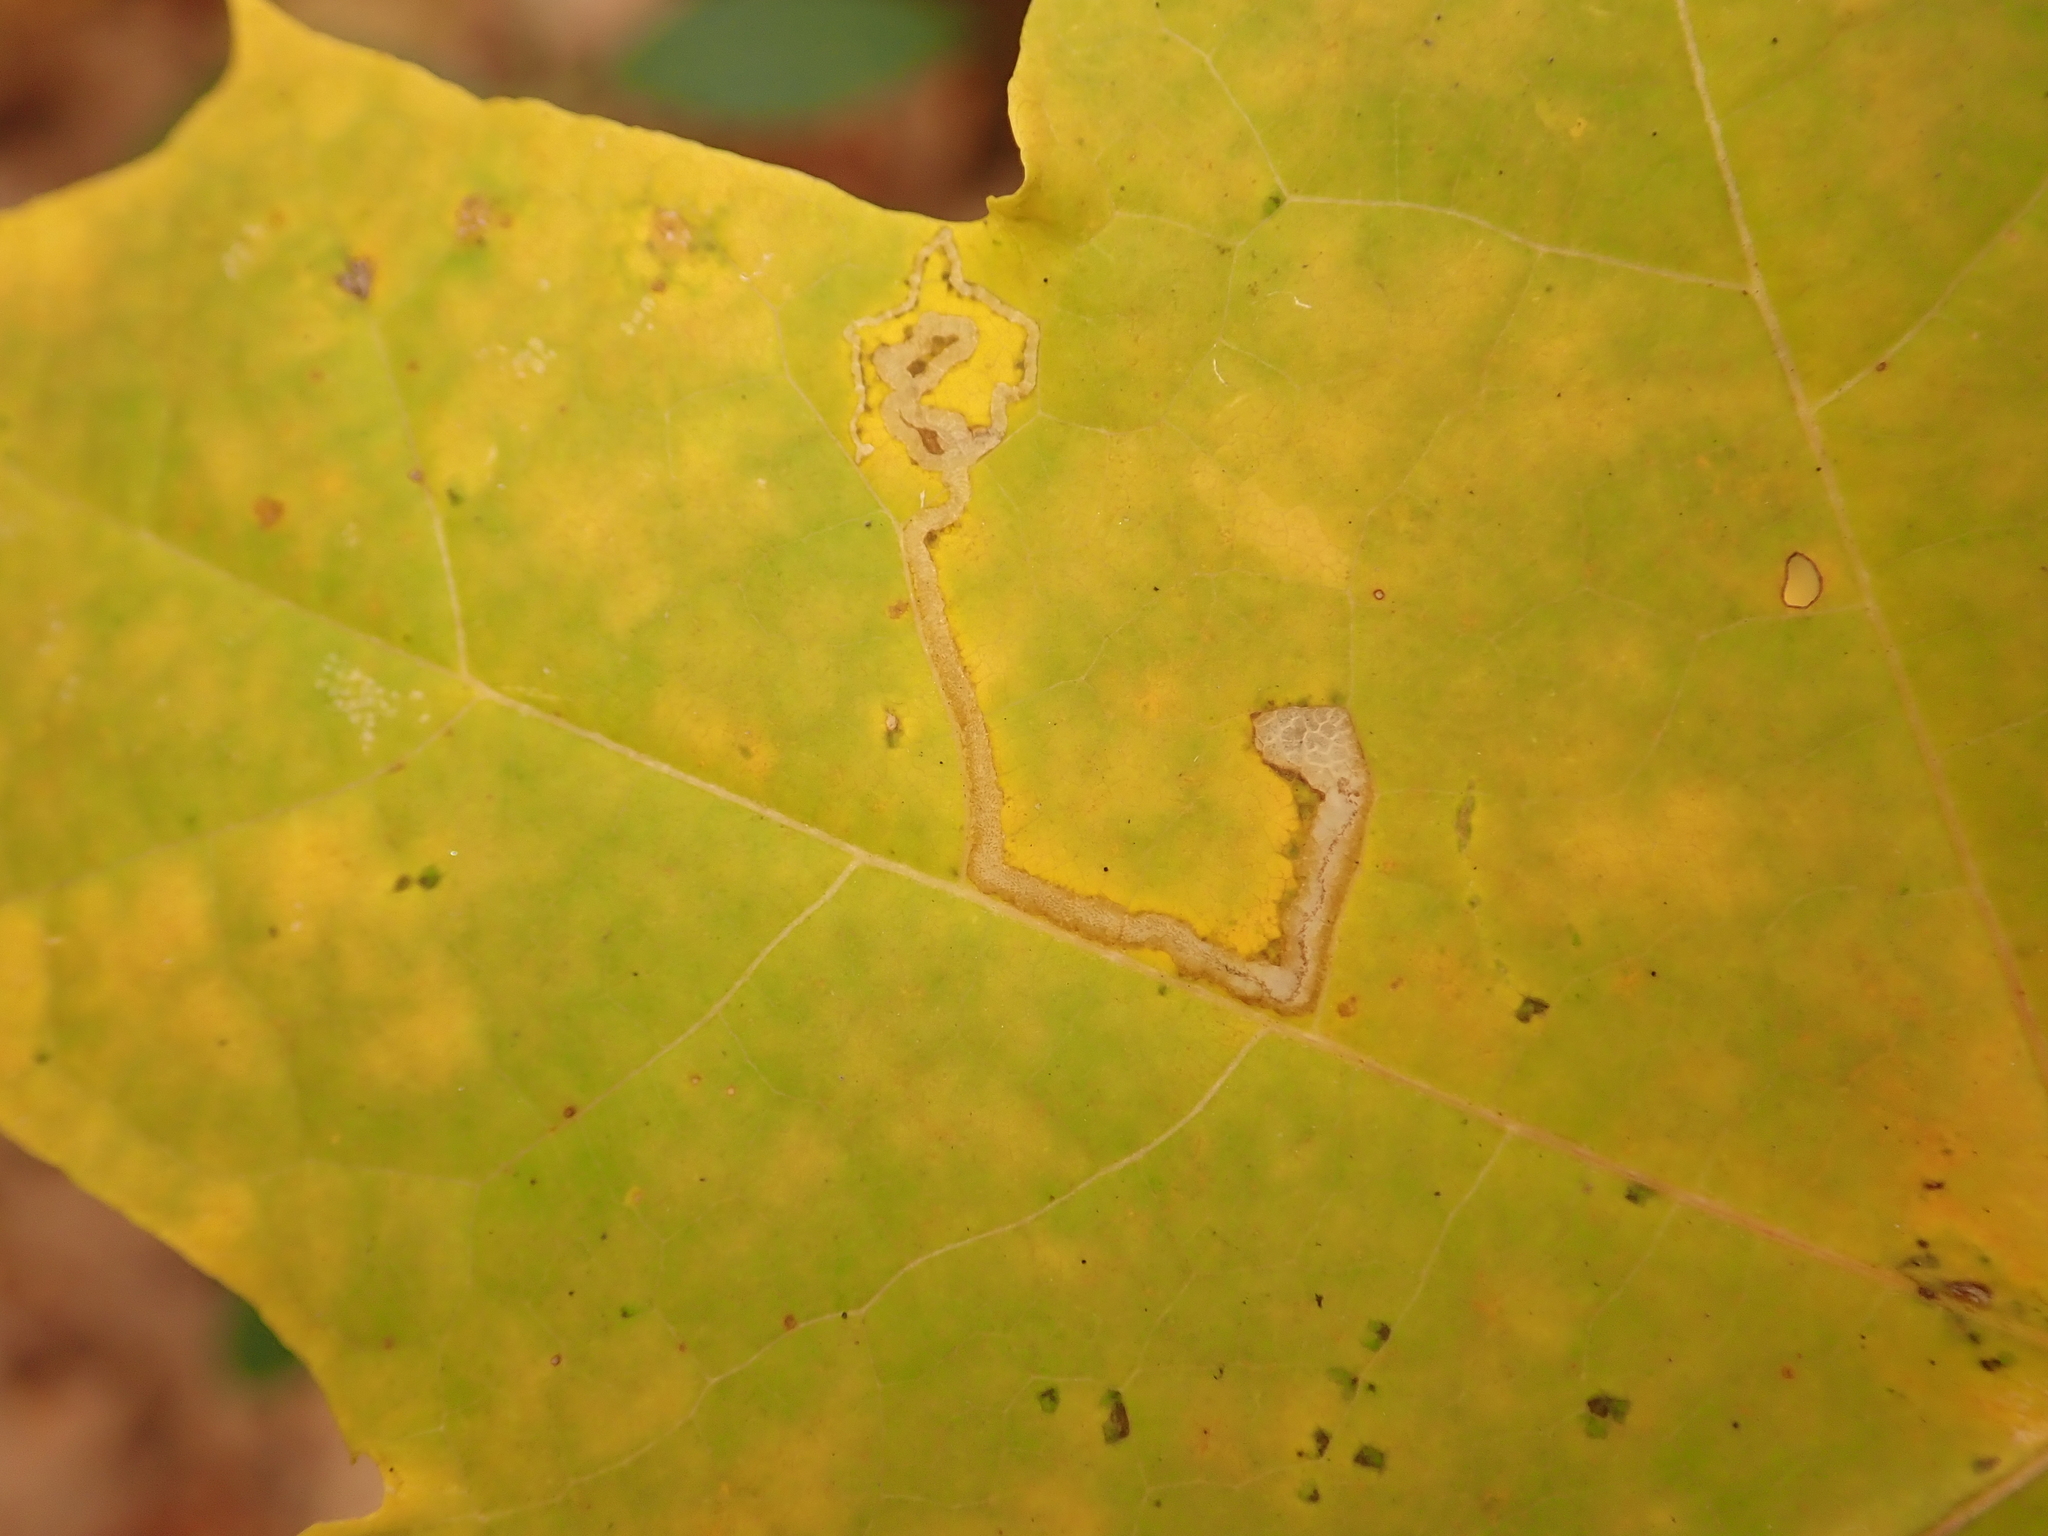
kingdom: Animalia
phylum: Arthropoda
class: Insecta
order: Lepidoptera
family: Nepticulidae
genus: Stigmella
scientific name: Stigmella aceris
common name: Scarce maple pigmy
